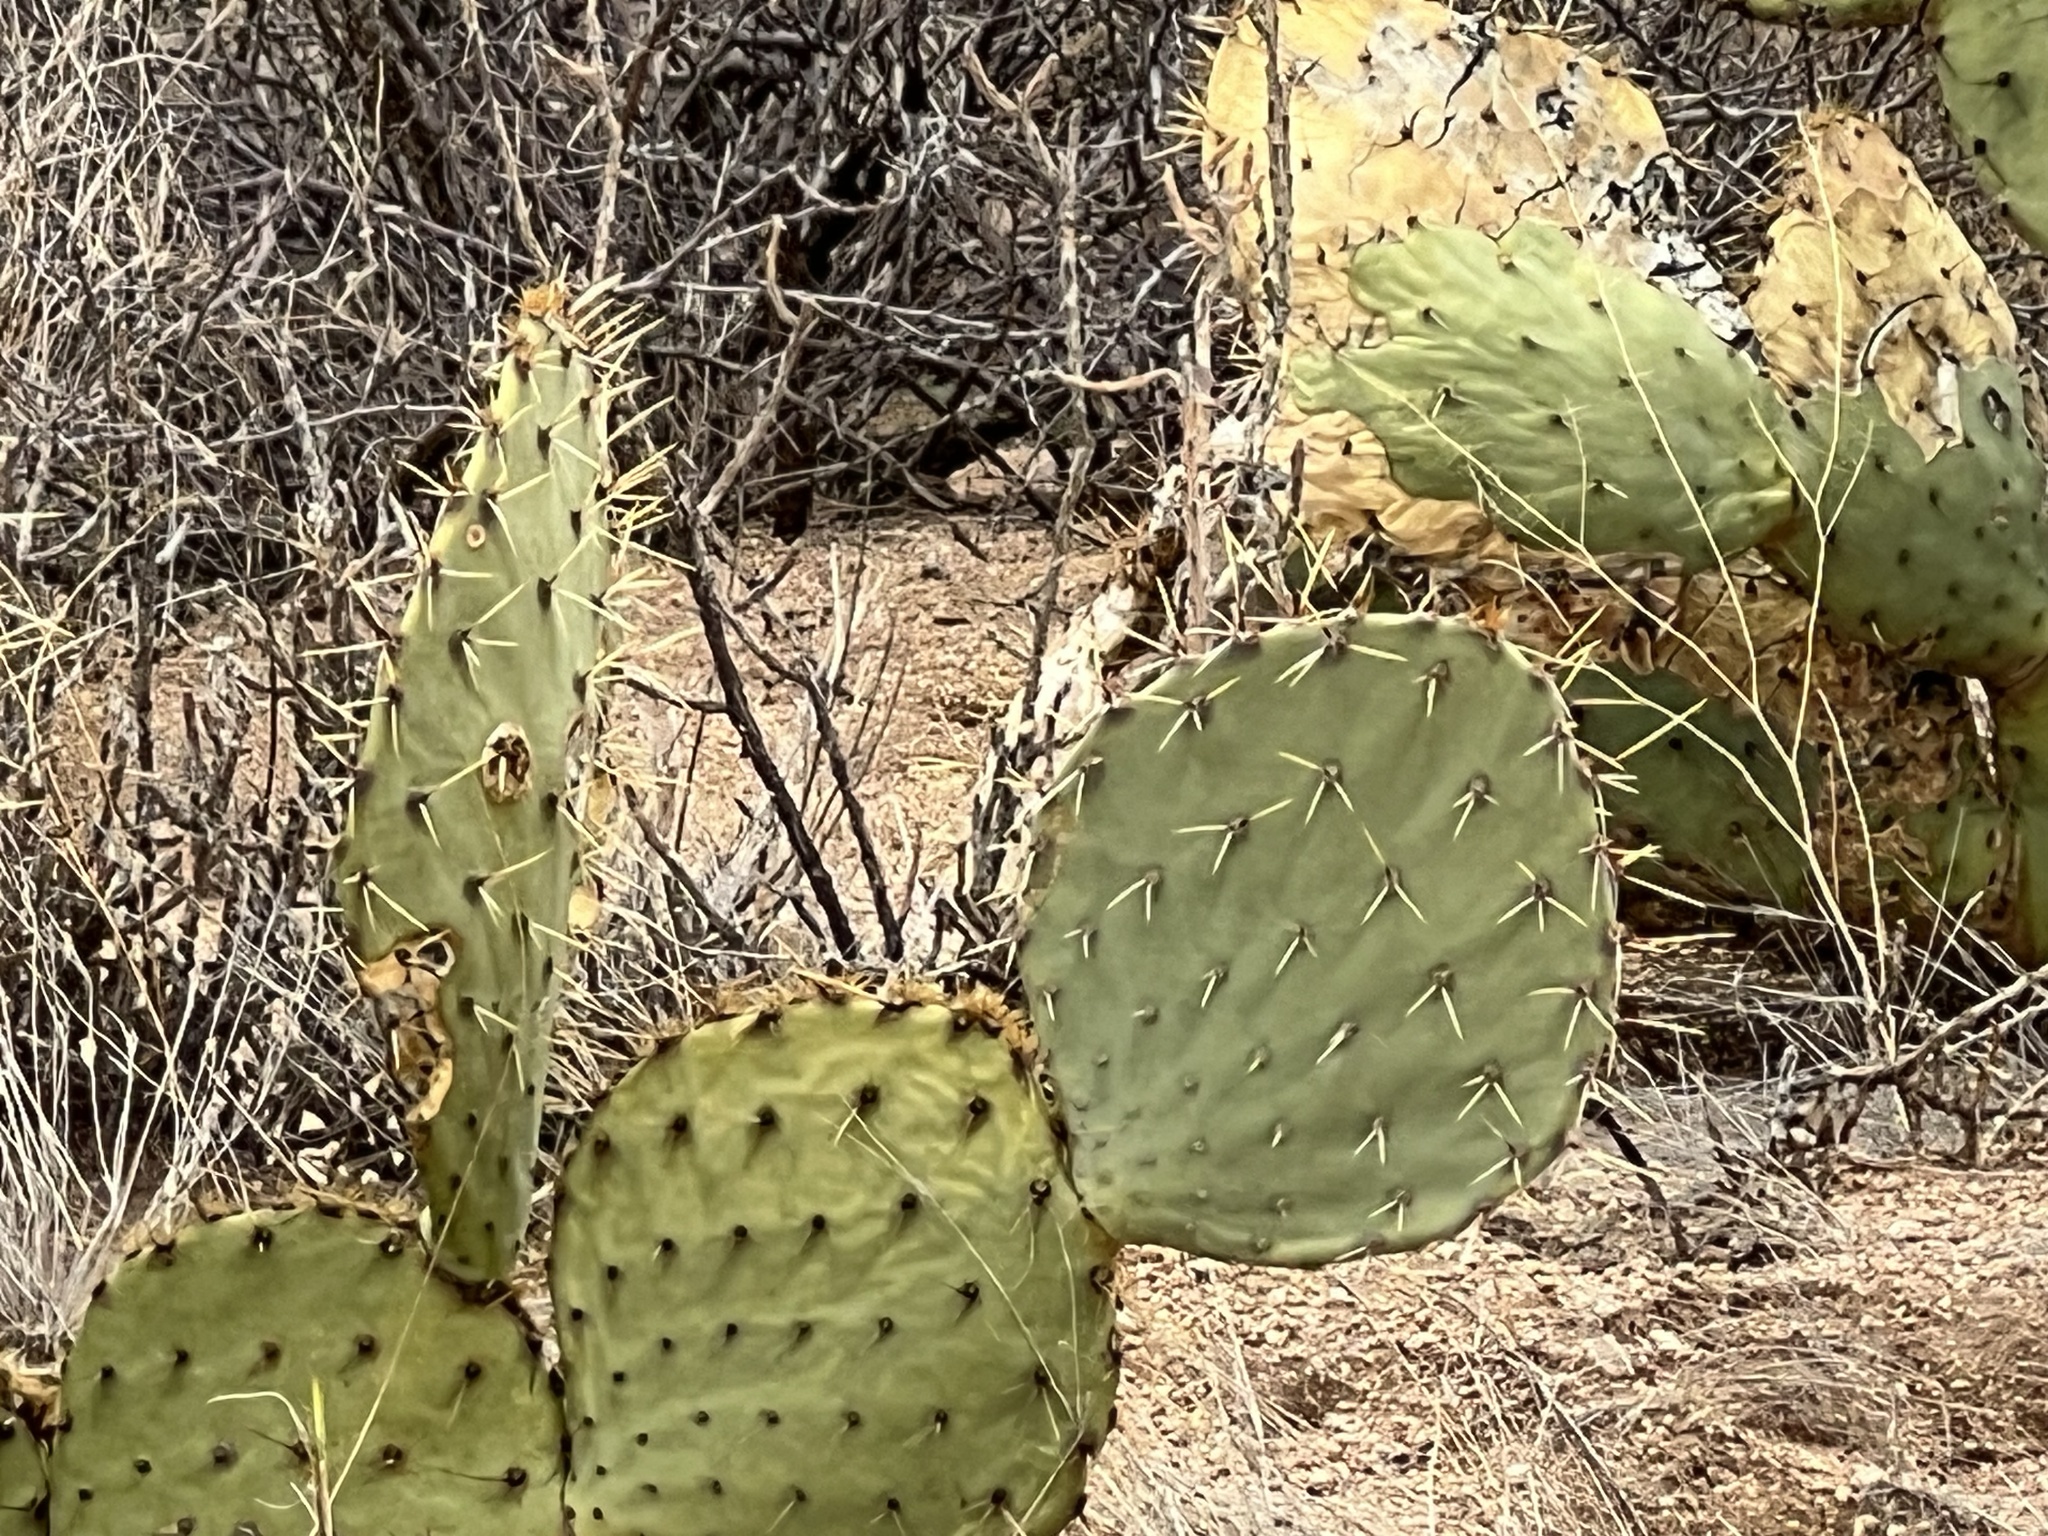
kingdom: Plantae
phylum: Tracheophyta
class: Magnoliopsida
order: Caryophyllales
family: Cactaceae
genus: Opuntia
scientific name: Opuntia engelmannii
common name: Cactus-apple
